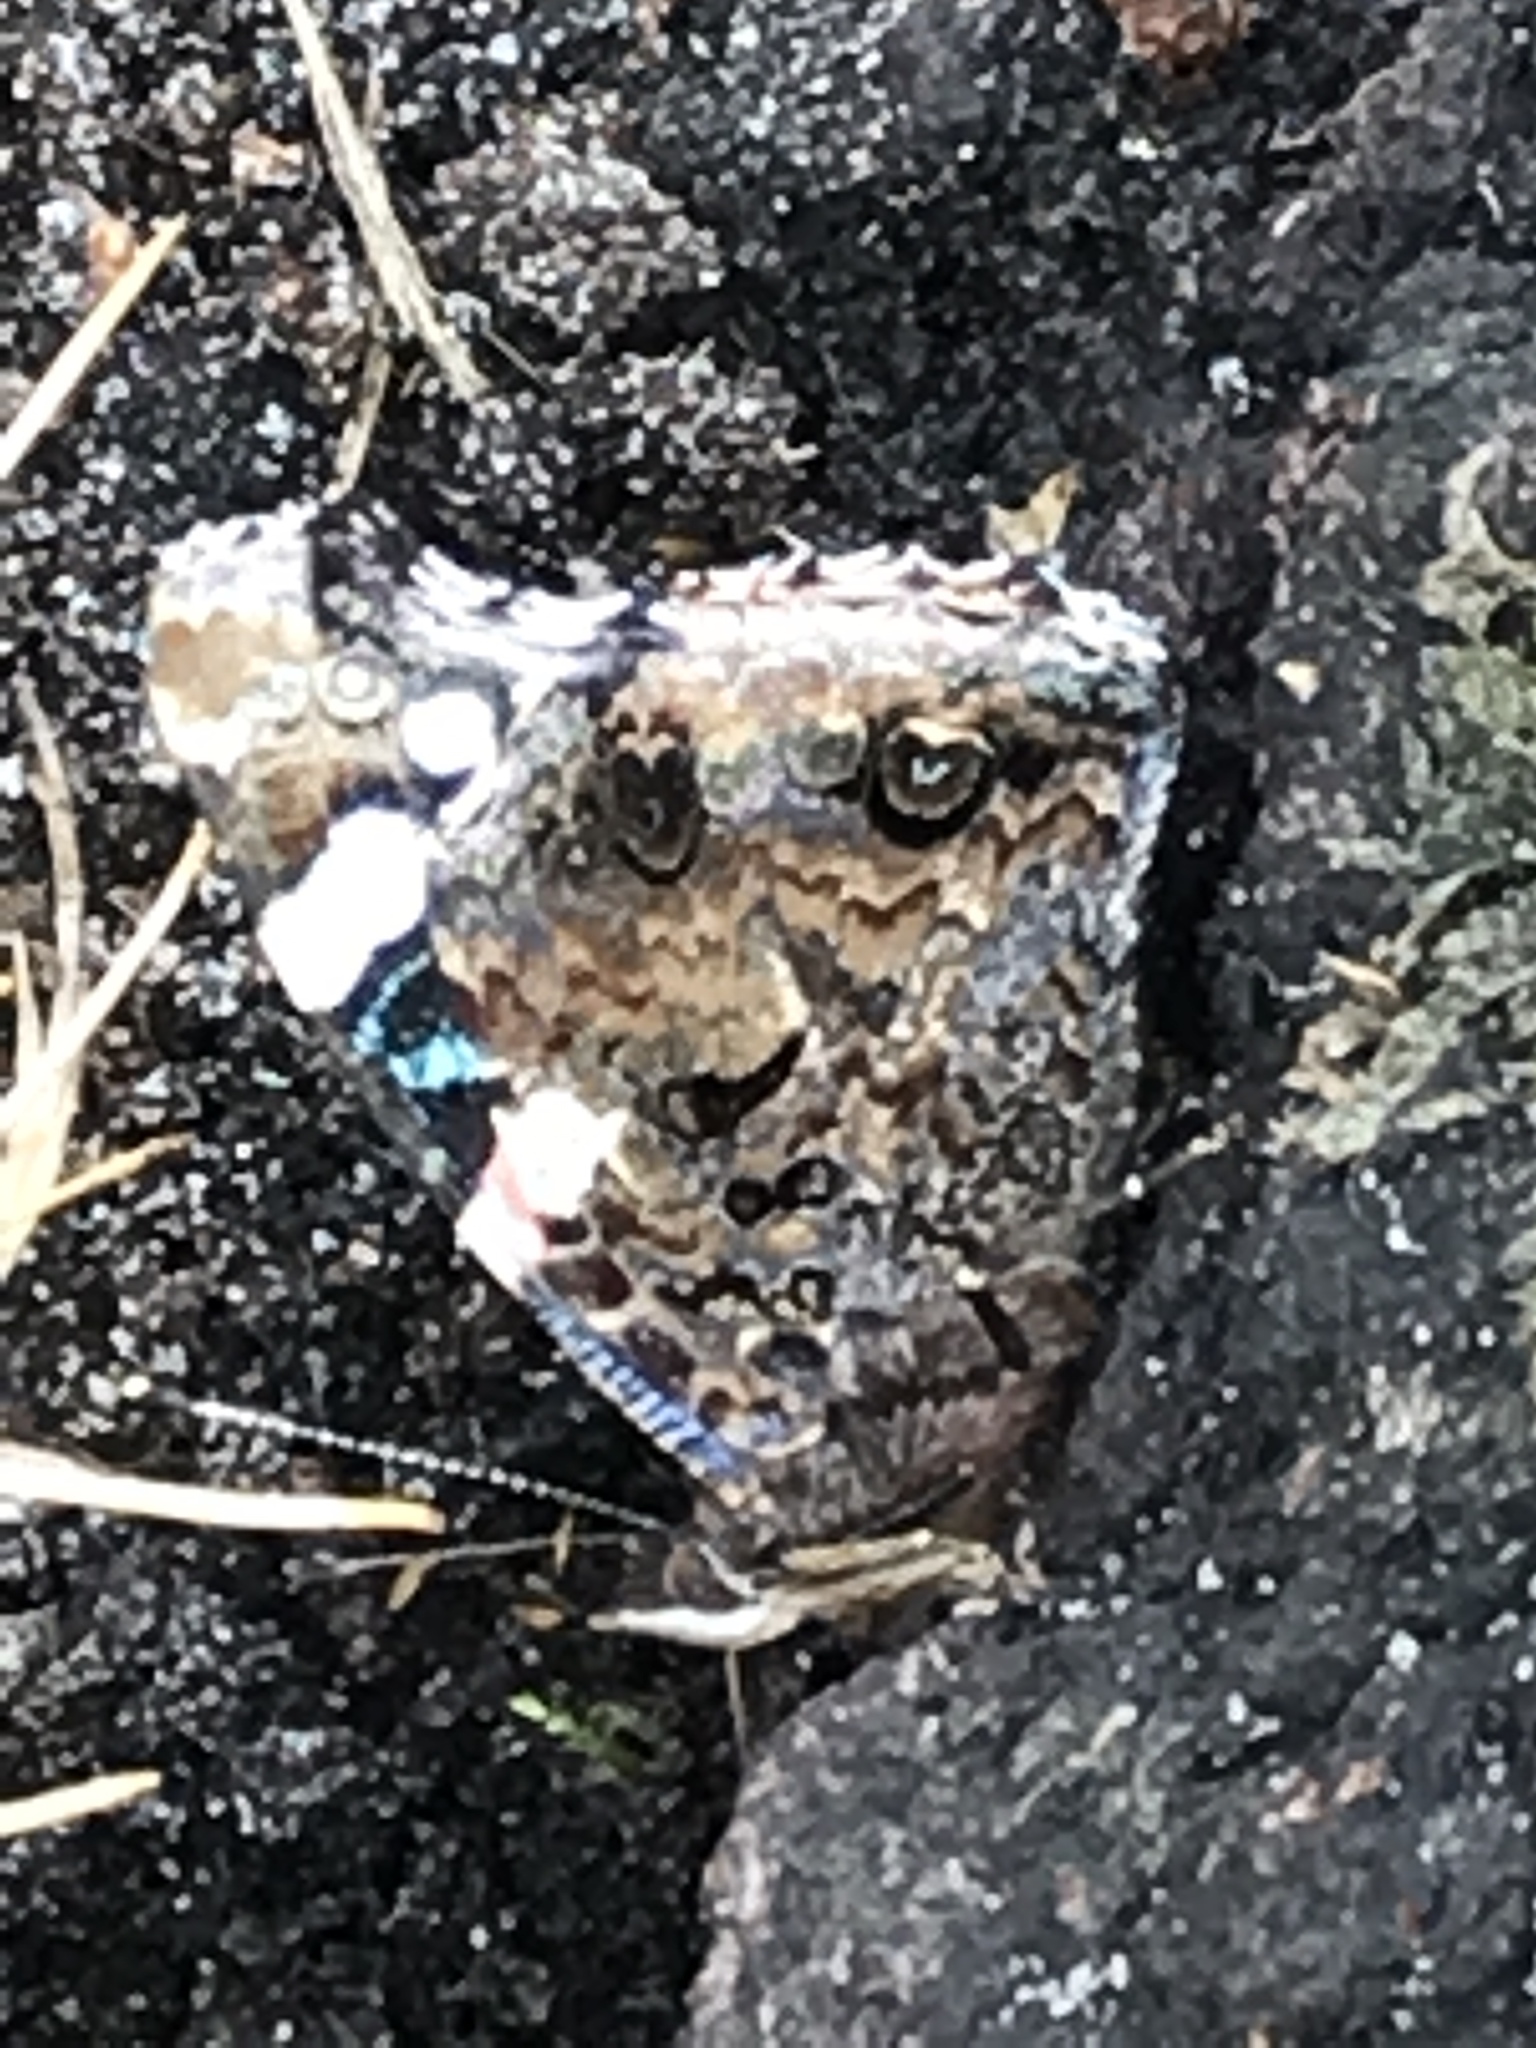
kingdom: Animalia
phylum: Arthropoda
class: Insecta
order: Lepidoptera
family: Nymphalidae
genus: Vanessa
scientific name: Vanessa atalanta
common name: Red admiral
